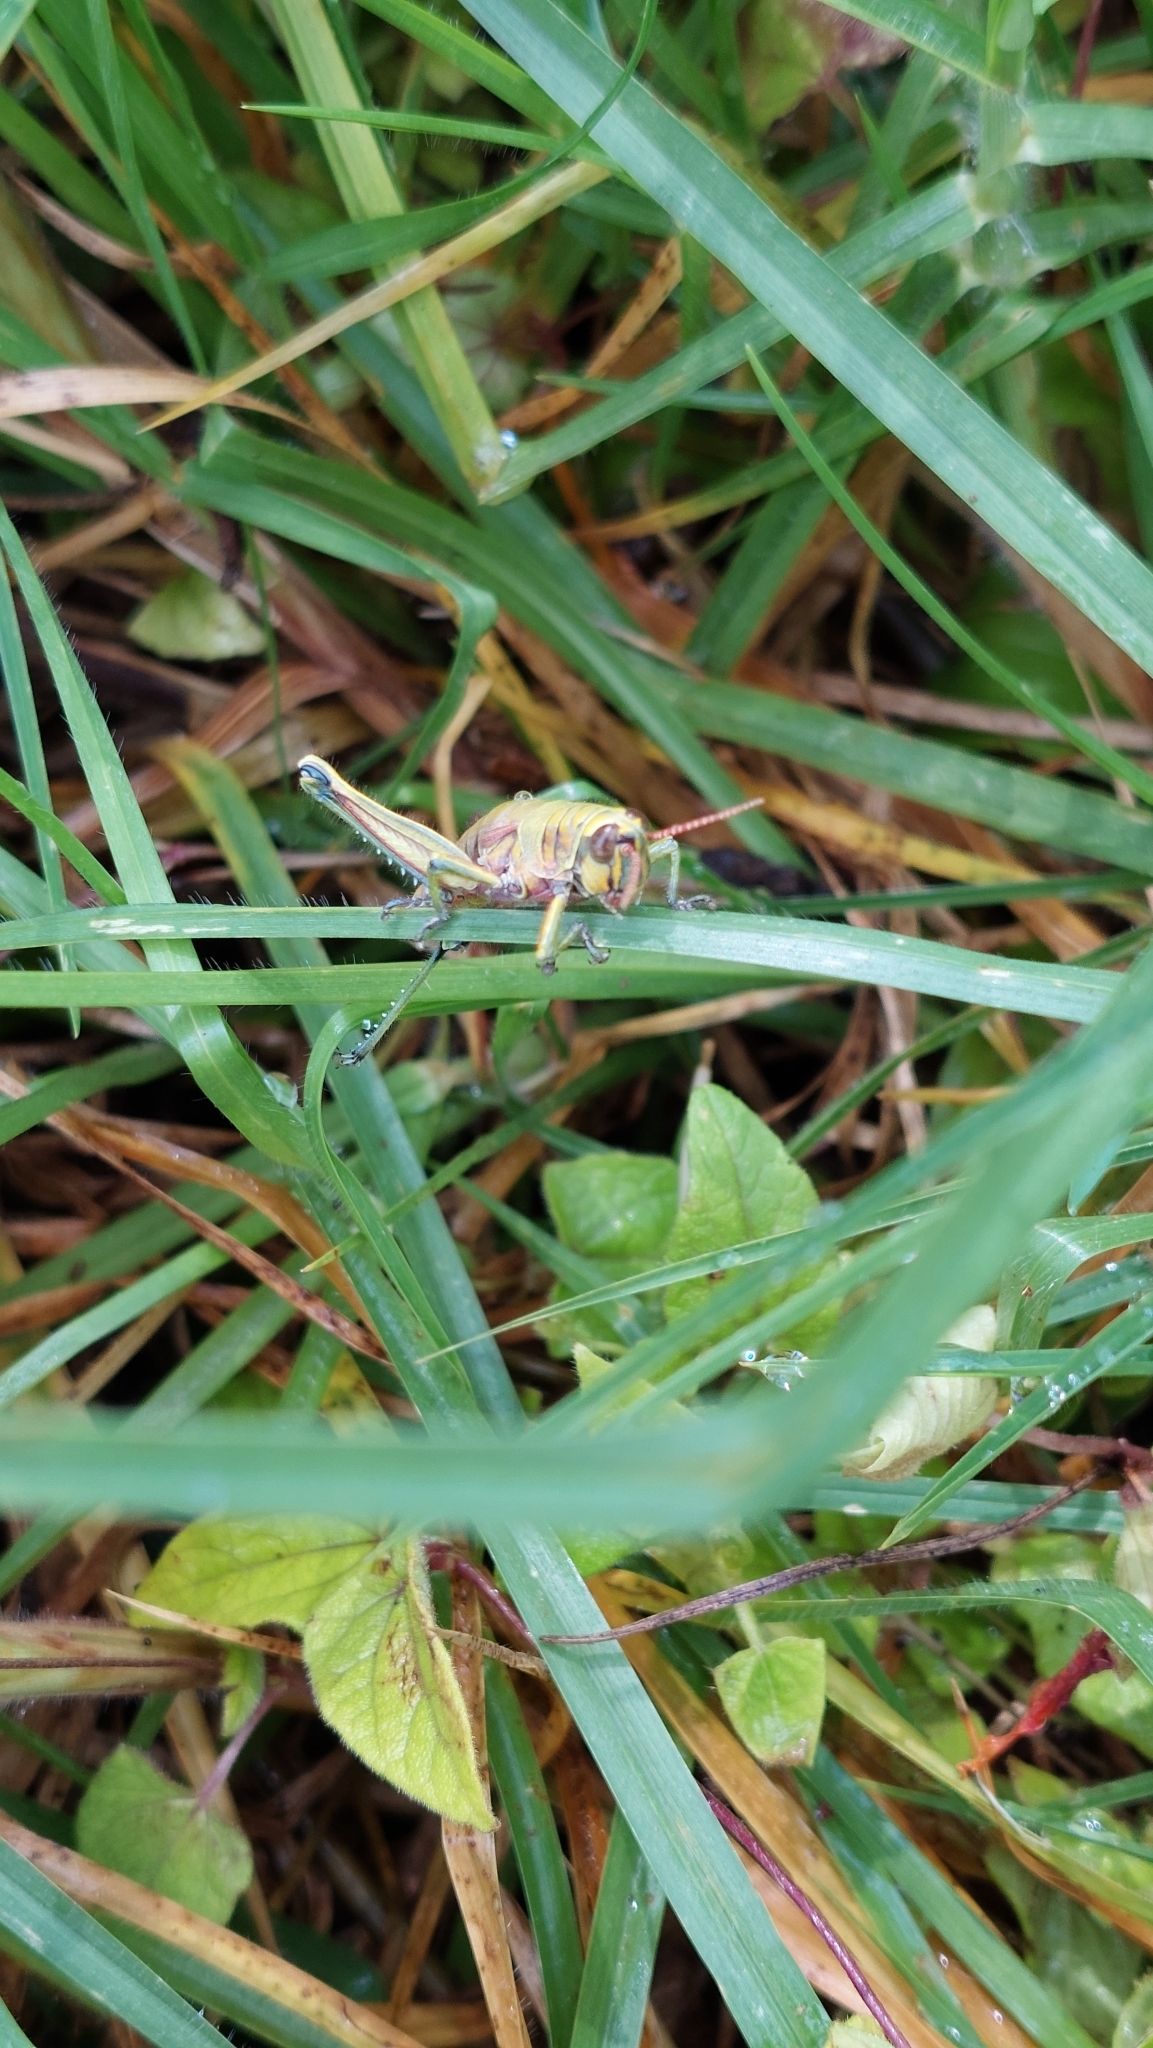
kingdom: Animalia
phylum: Arthropoda
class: Insecta
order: Orthoptera
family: Acrididae
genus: Agesander
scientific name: Agesander ruficornis
